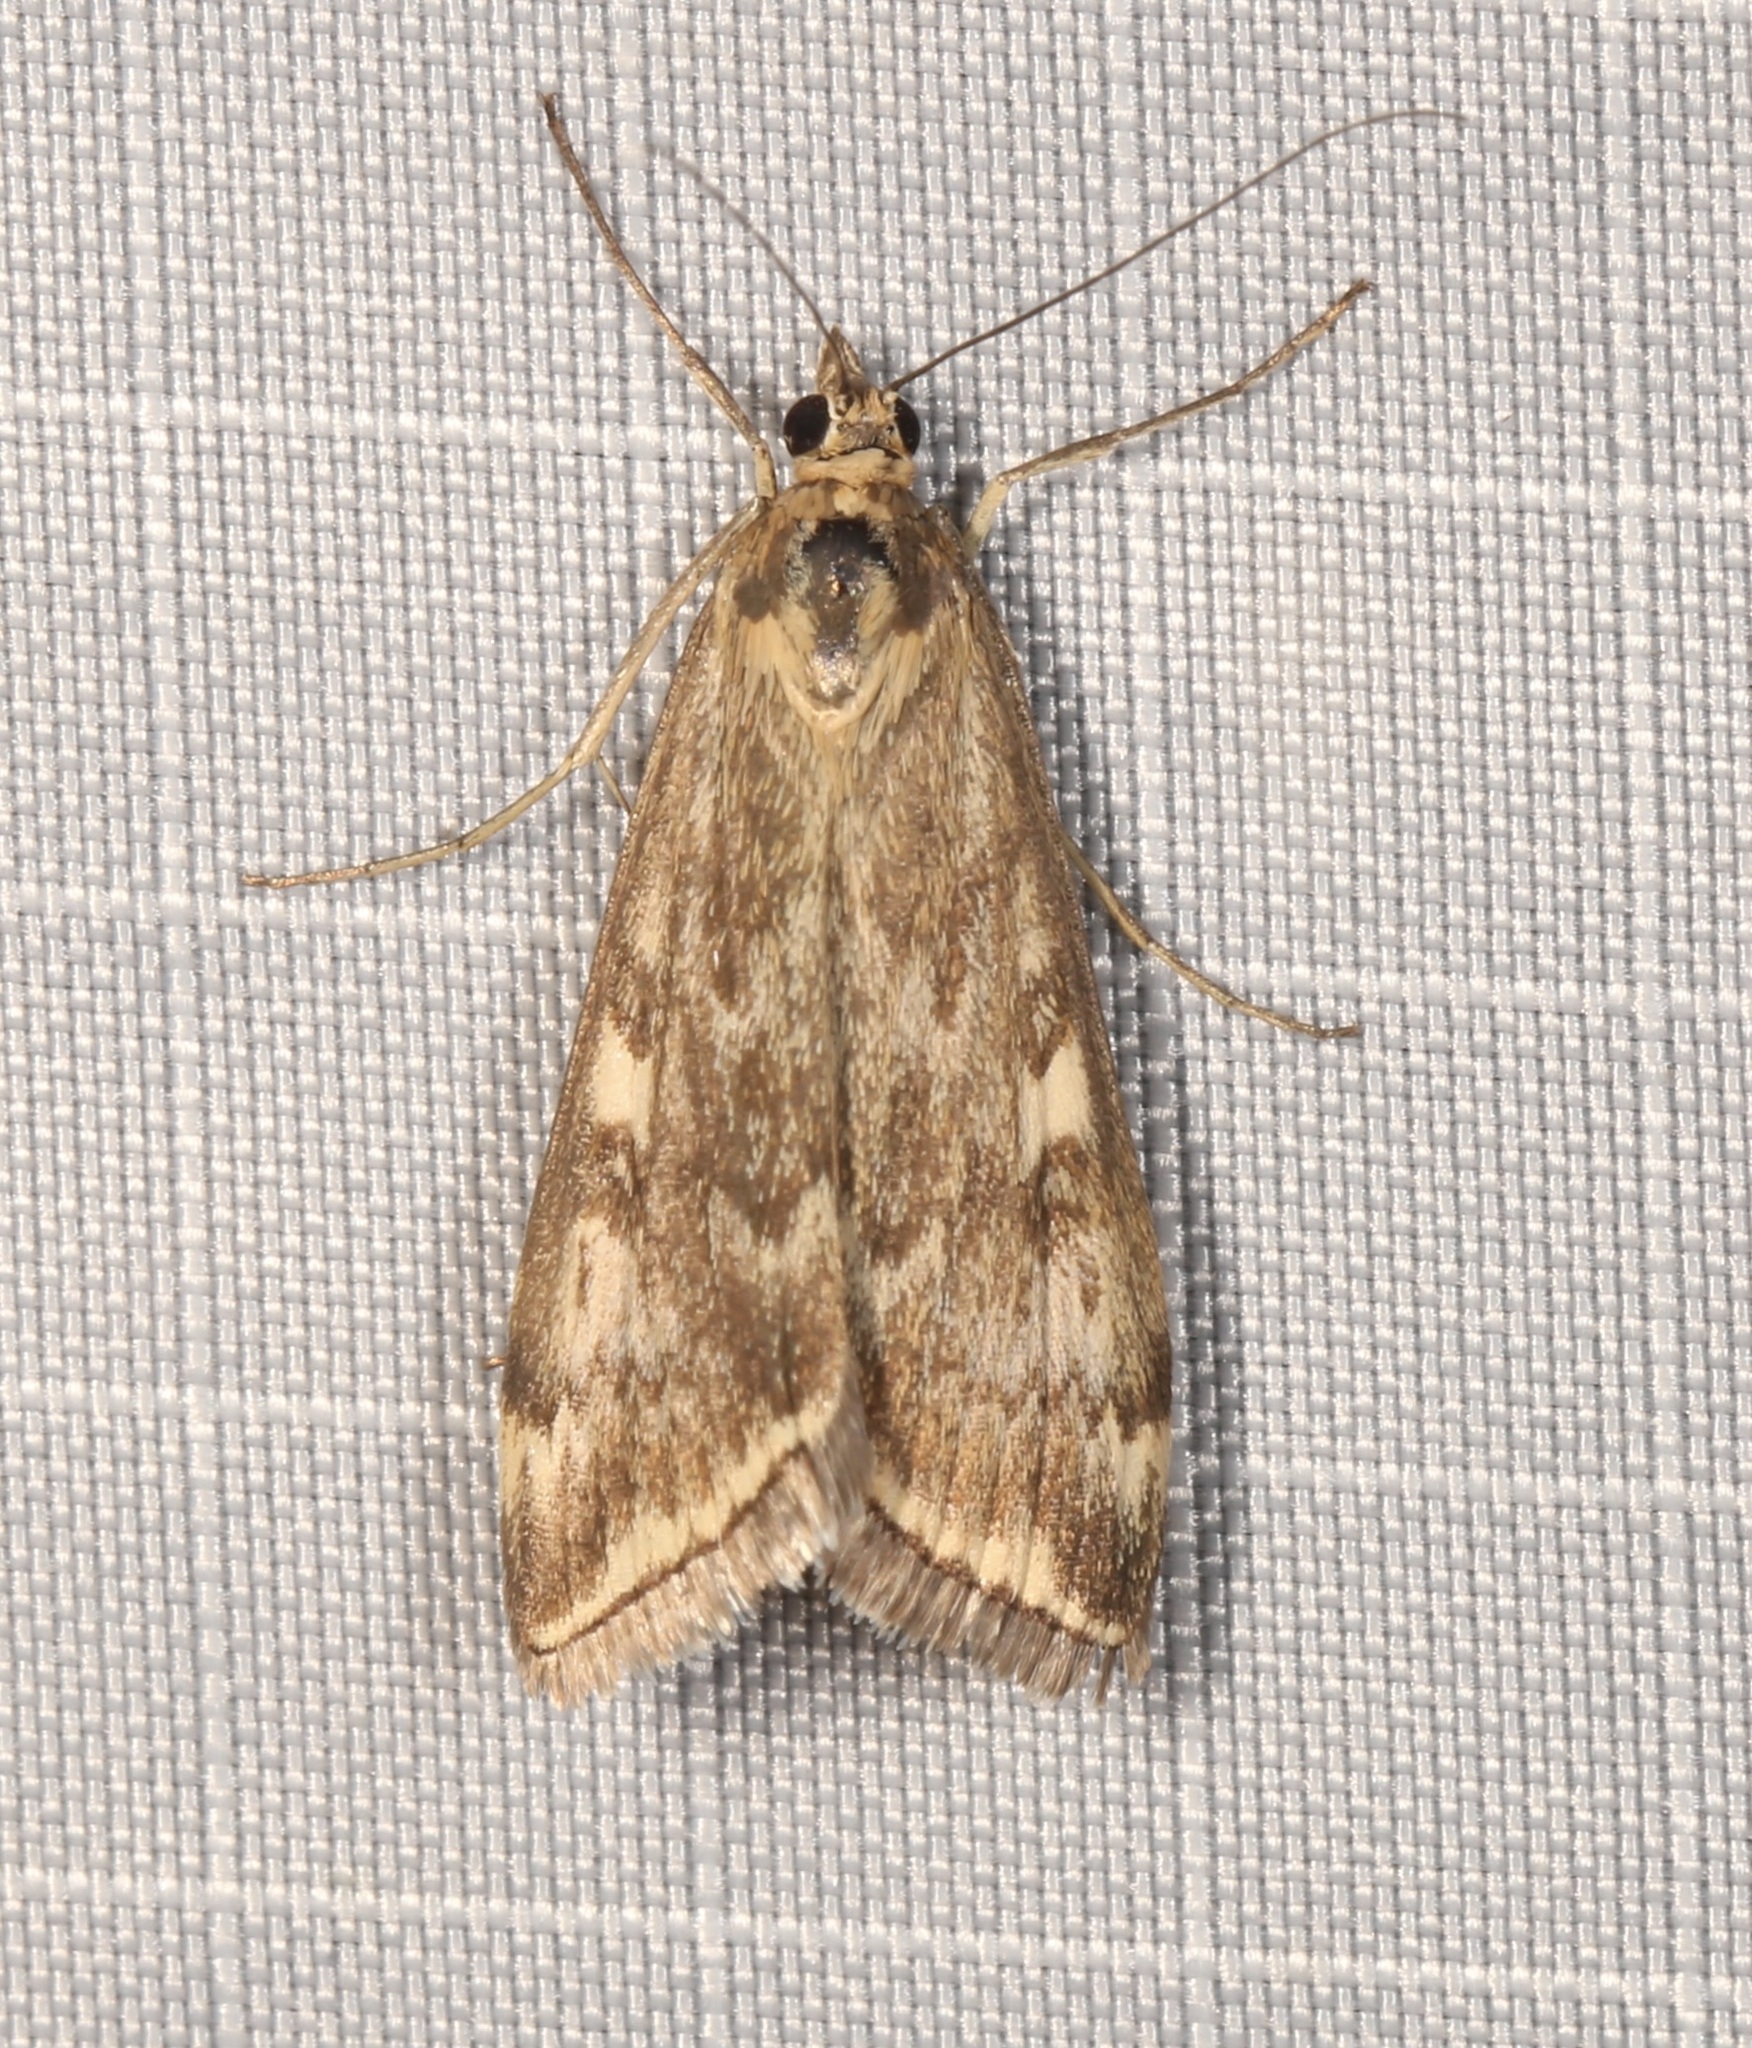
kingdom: Animalia
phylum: Arthropoda
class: Insecta
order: Lepidoptera
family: Crambidae
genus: Loxostege
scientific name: Loxostege cereralis
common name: Alfalfa webworm moth
